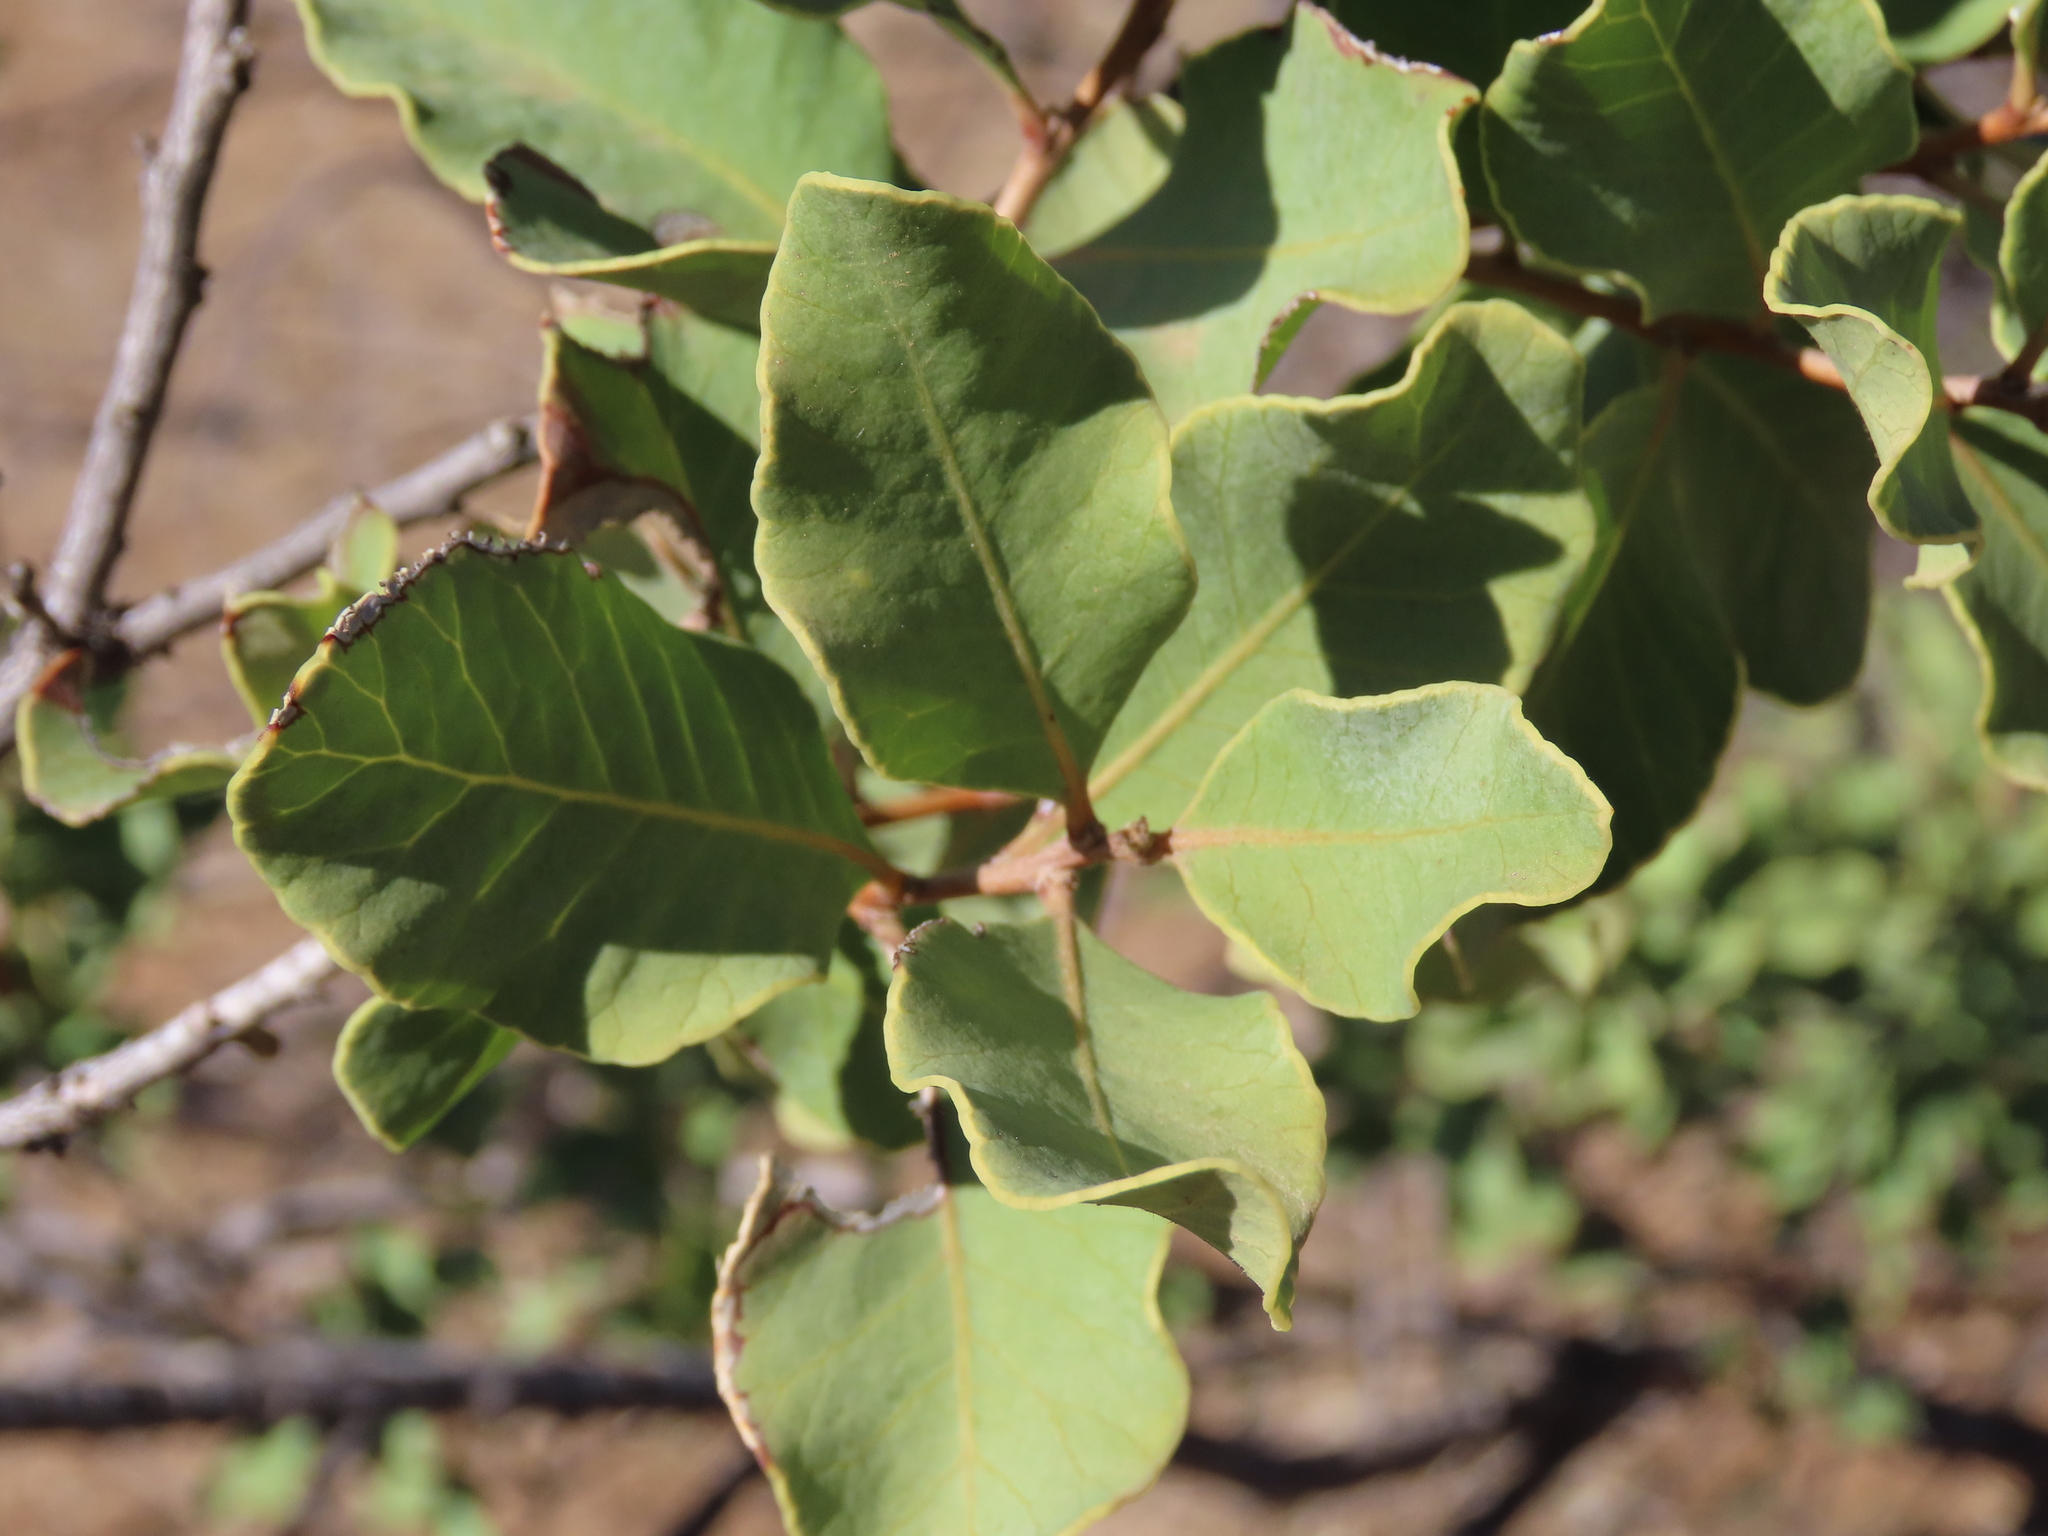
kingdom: Plantae
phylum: Tracheophyta
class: Magnoliopsida
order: Sapindales
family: Anacardiaceae
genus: Lithraea
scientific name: Lithraea caustica
